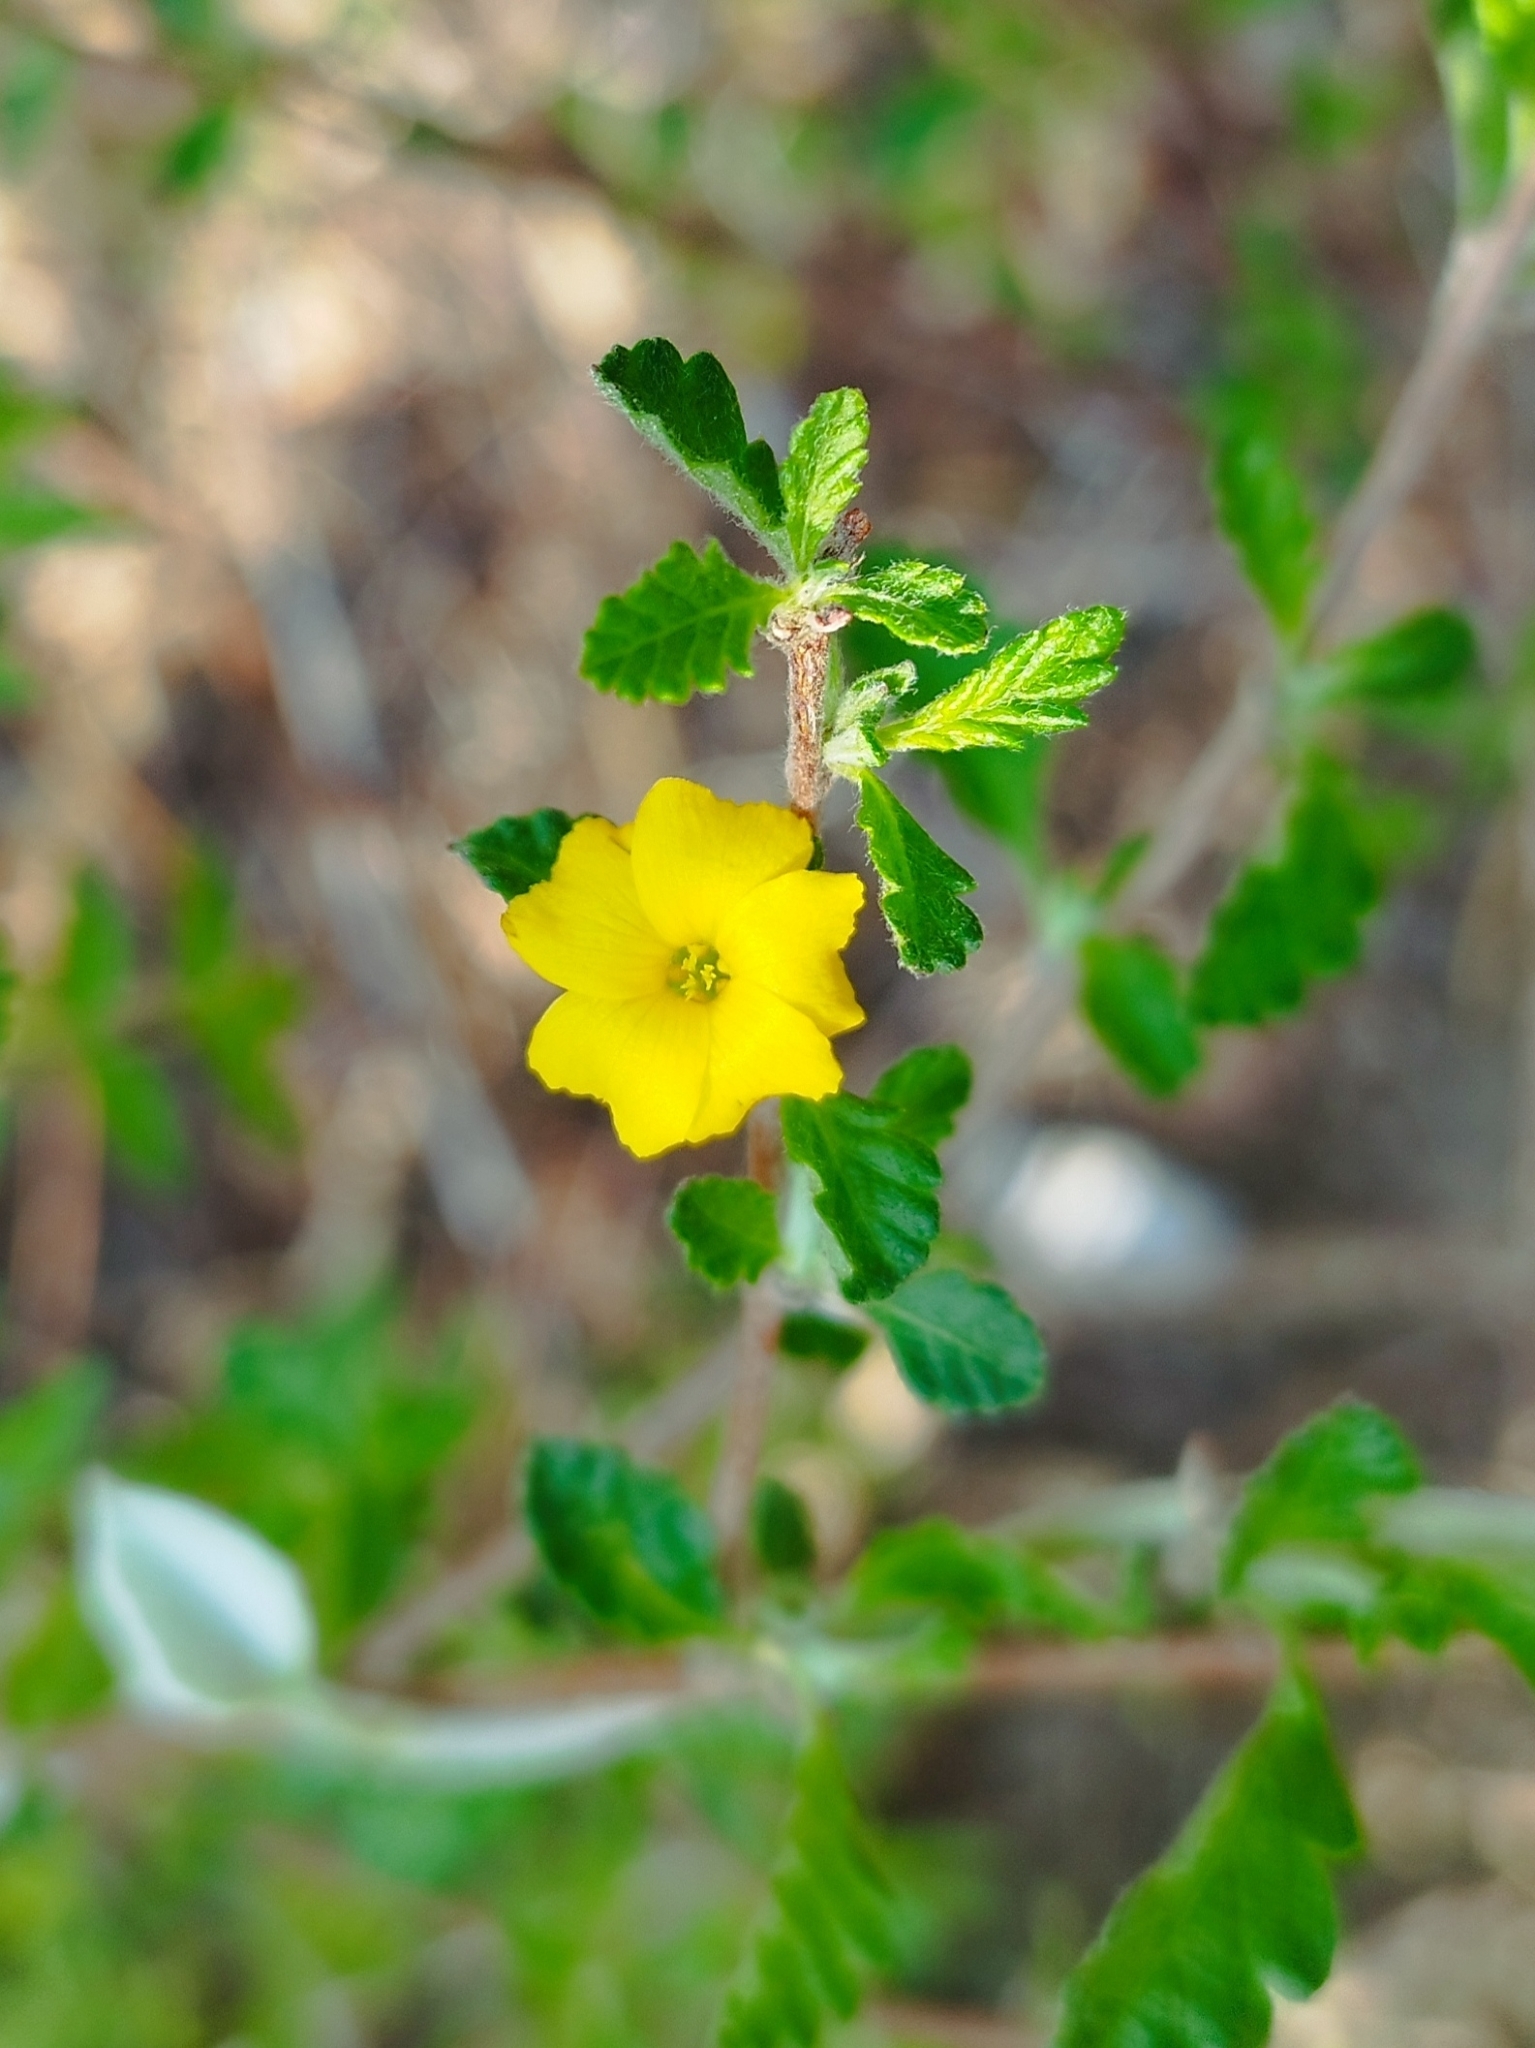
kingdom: Plantae
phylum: Tracheophyta
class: Magnoliopsida
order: Malpighiales
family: Turneraceae
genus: Turnera
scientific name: Turnera diffusa
